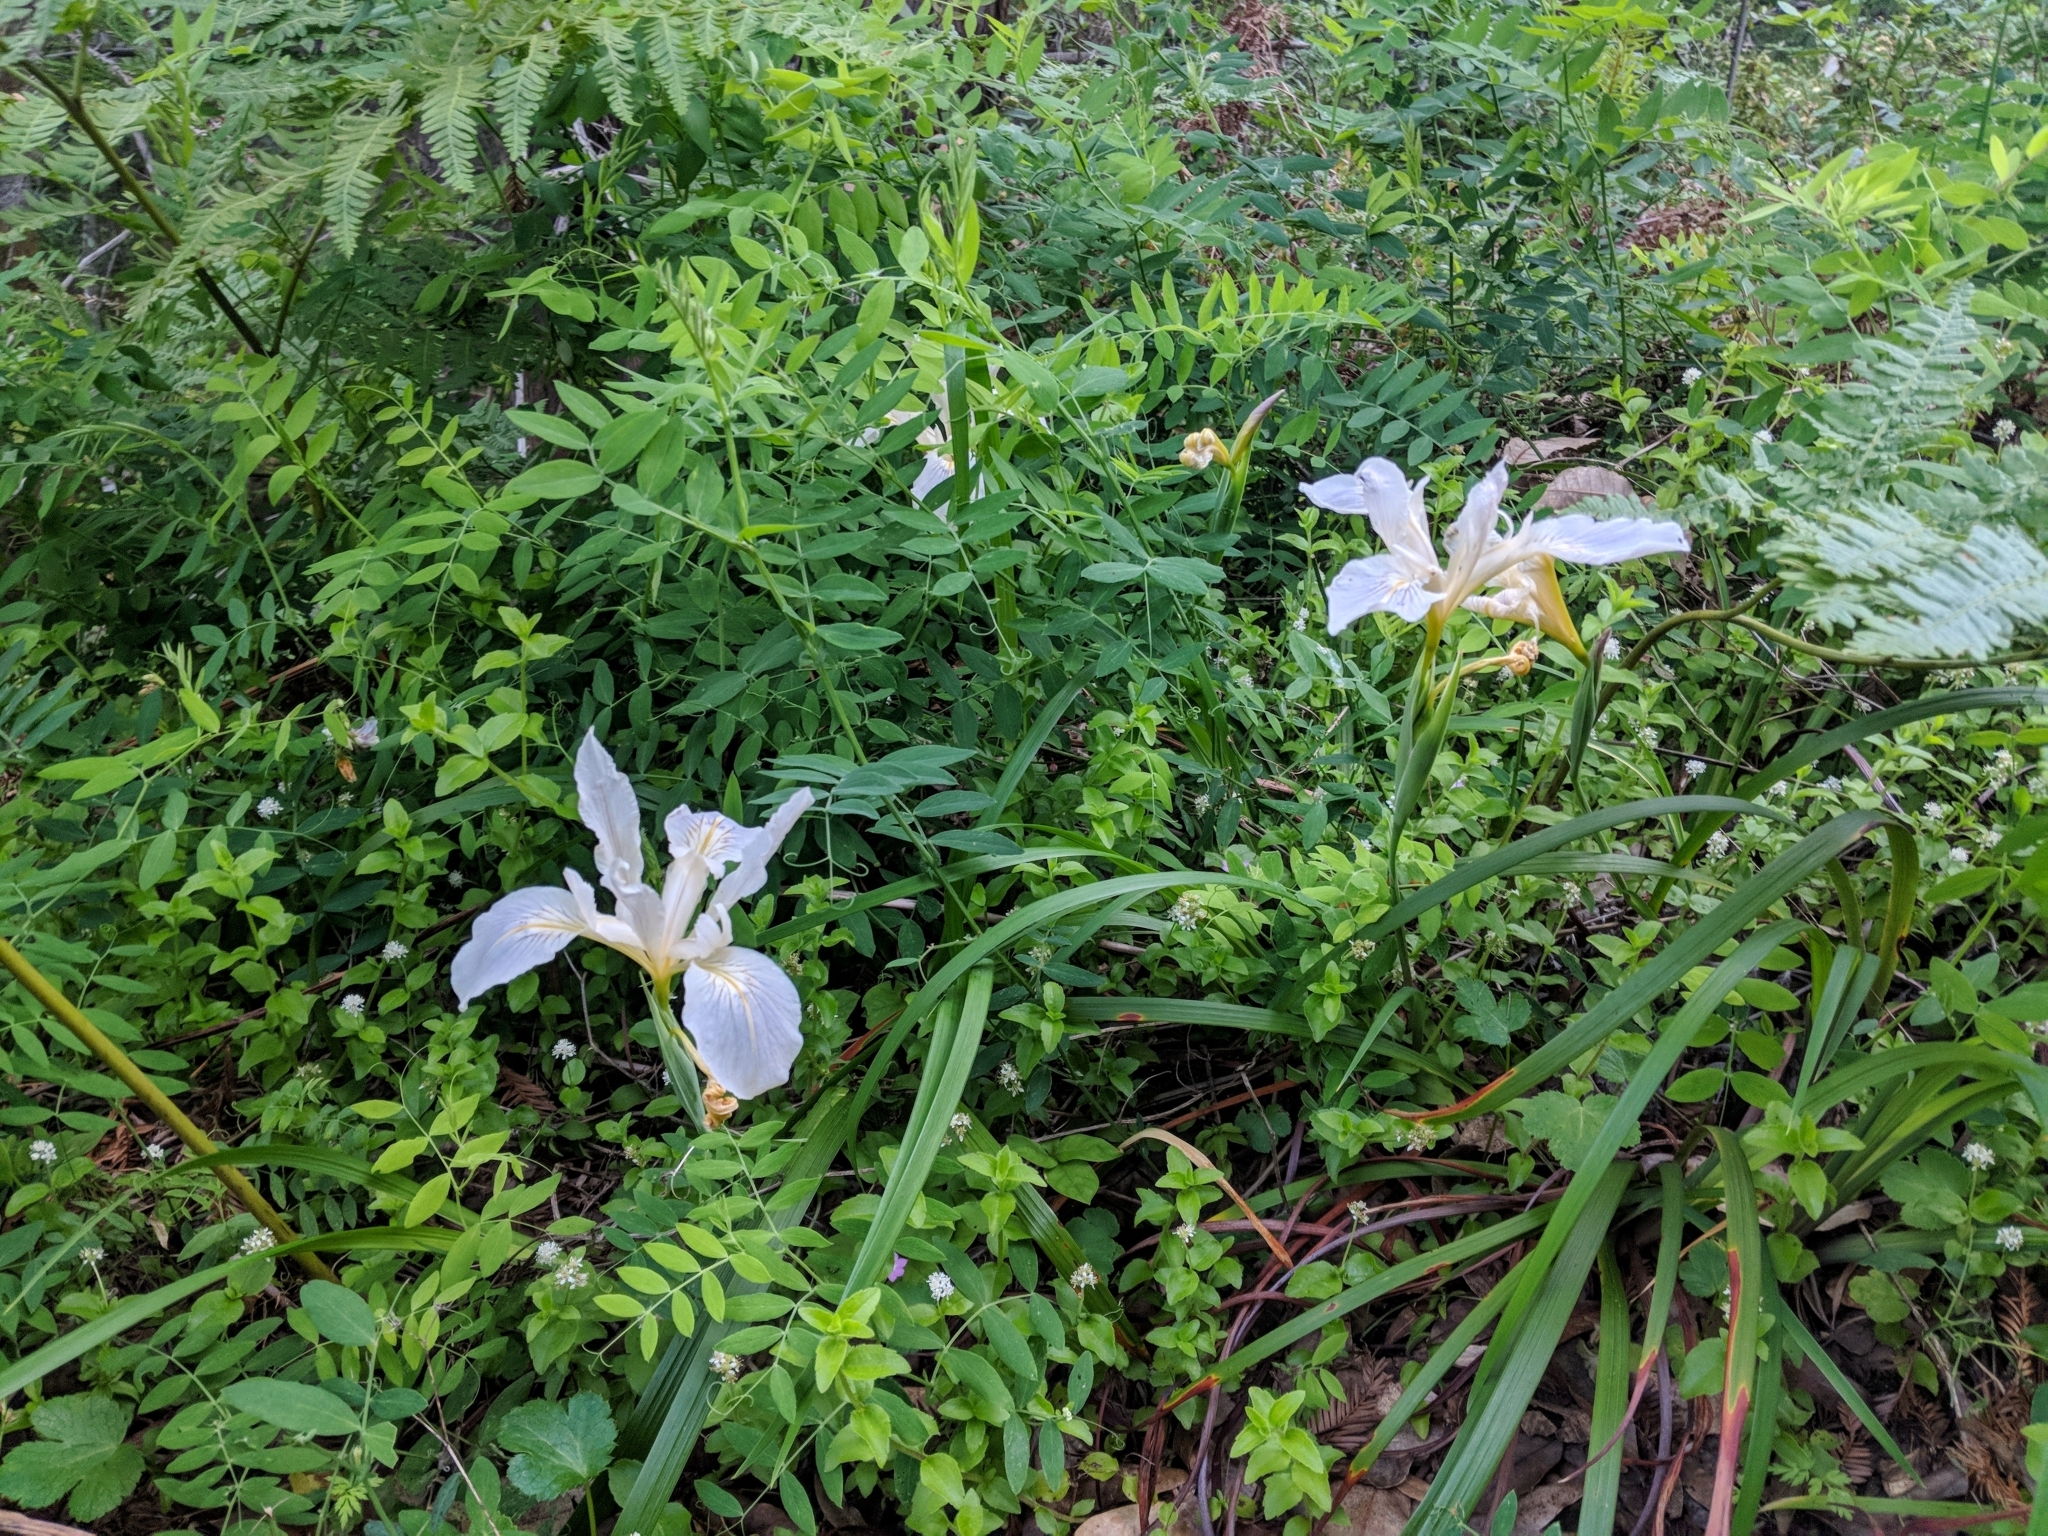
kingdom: Plantae
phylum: Tracheophyta
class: Liliopsida
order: Asparagales
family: Iridaceae
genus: Iris
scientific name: Iris douglasiana
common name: Marin iris
